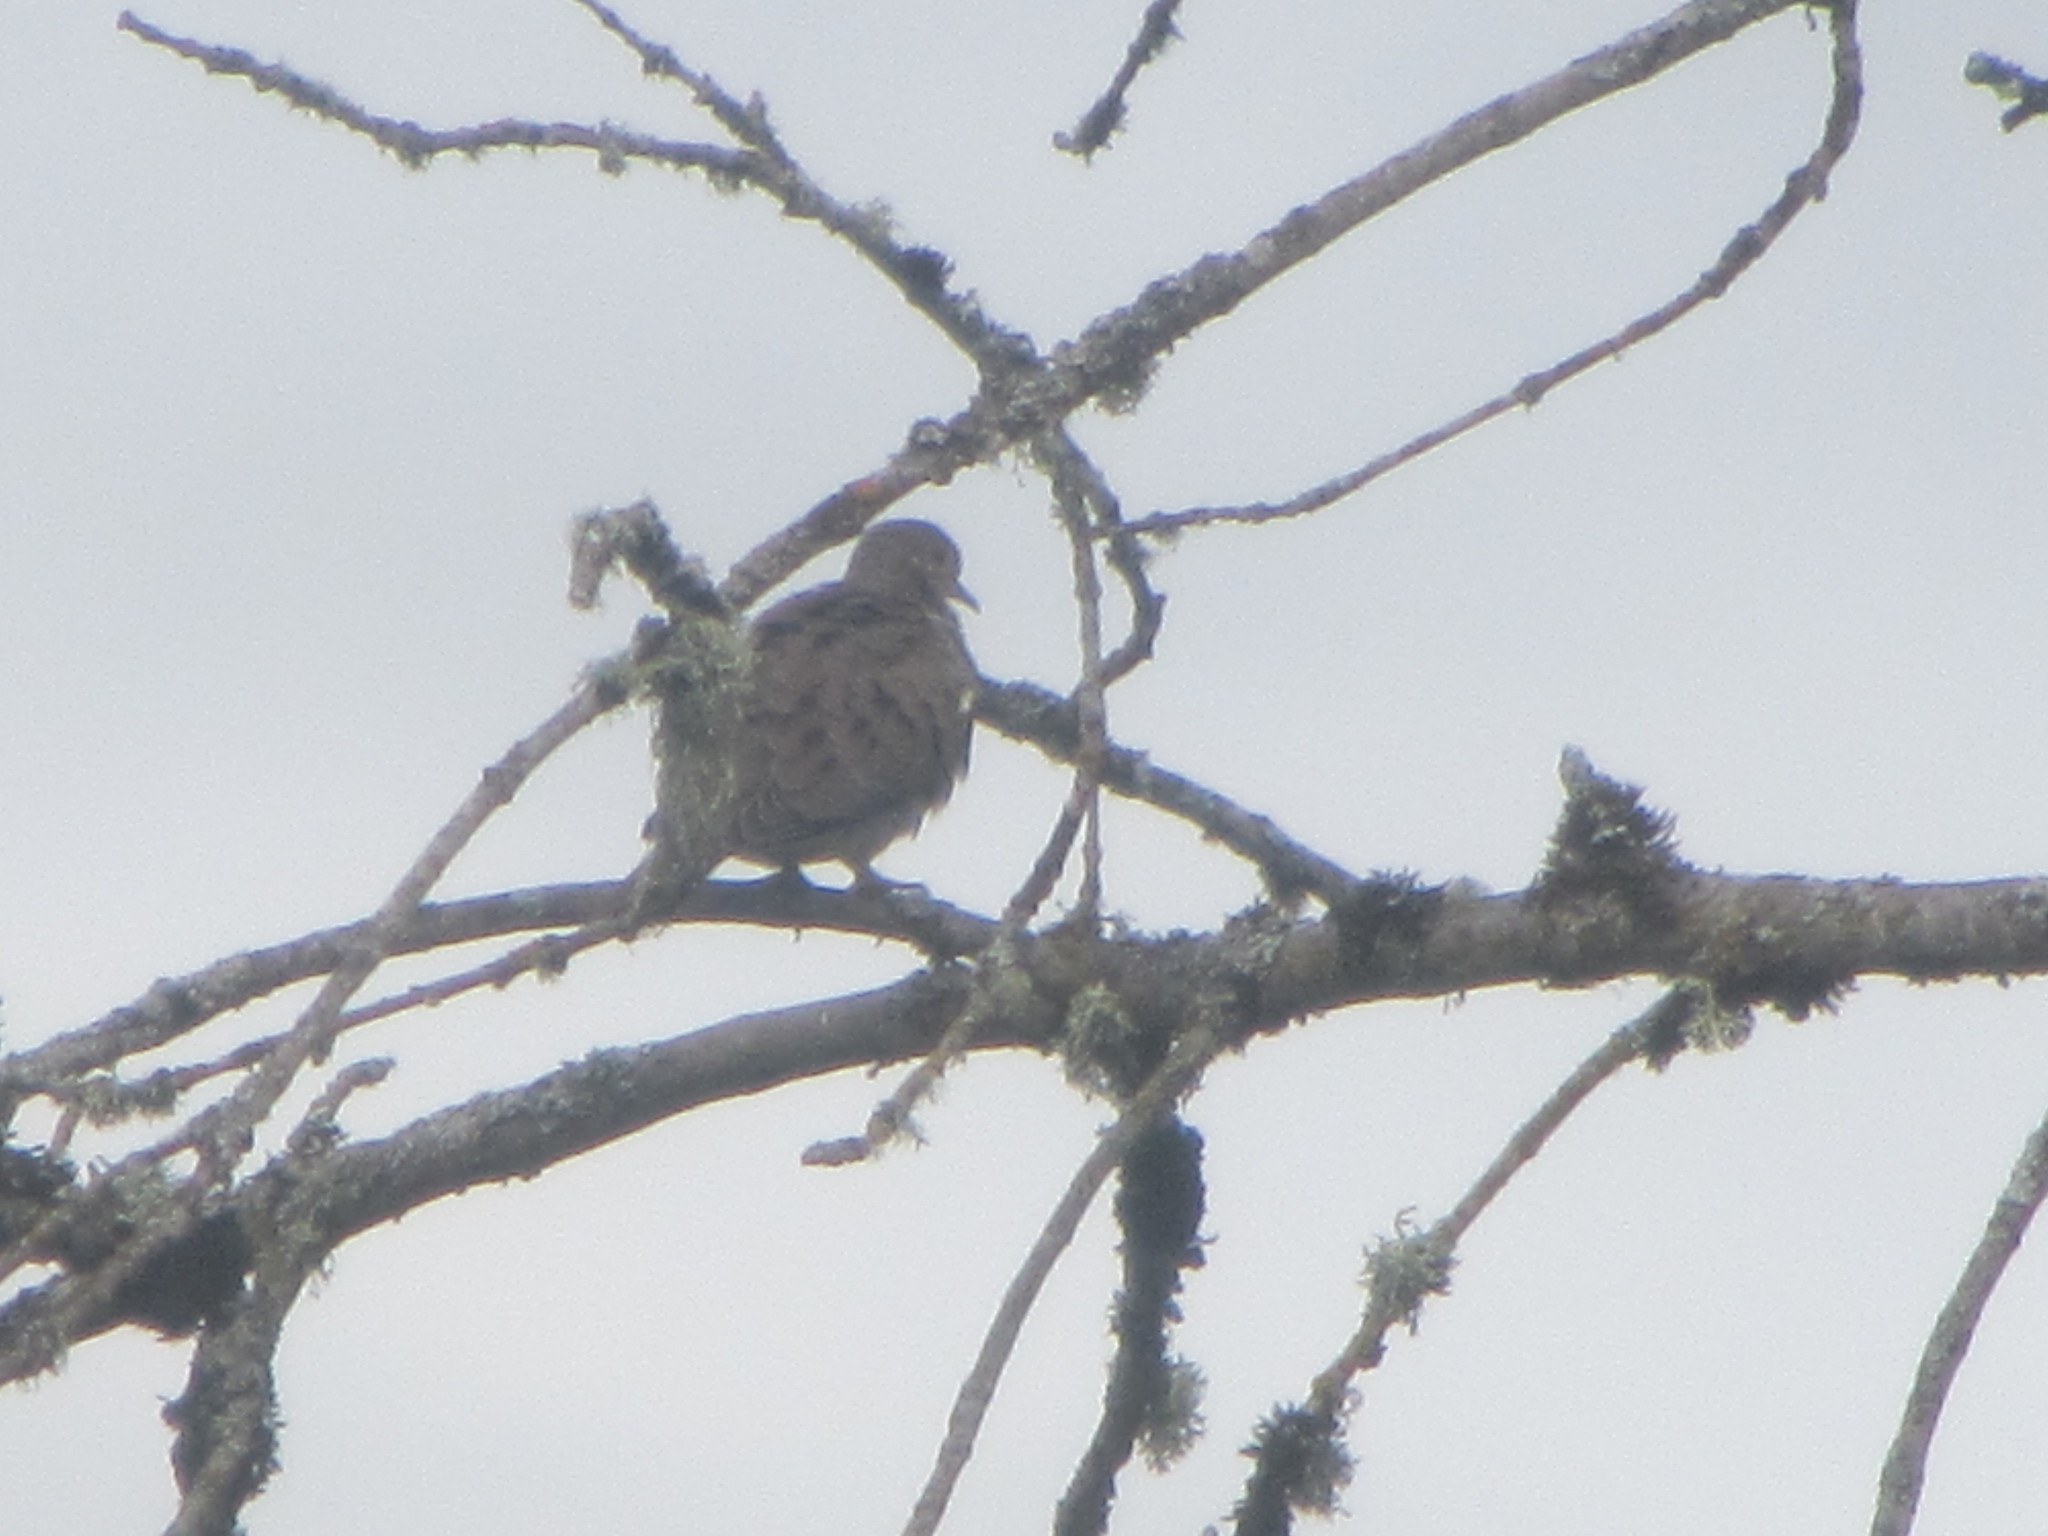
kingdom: Animalia
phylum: Chordata
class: Aves
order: Columbiformes
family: Columbidae
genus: Zenaida
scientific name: Zenaida macroura
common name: Mourning dove
